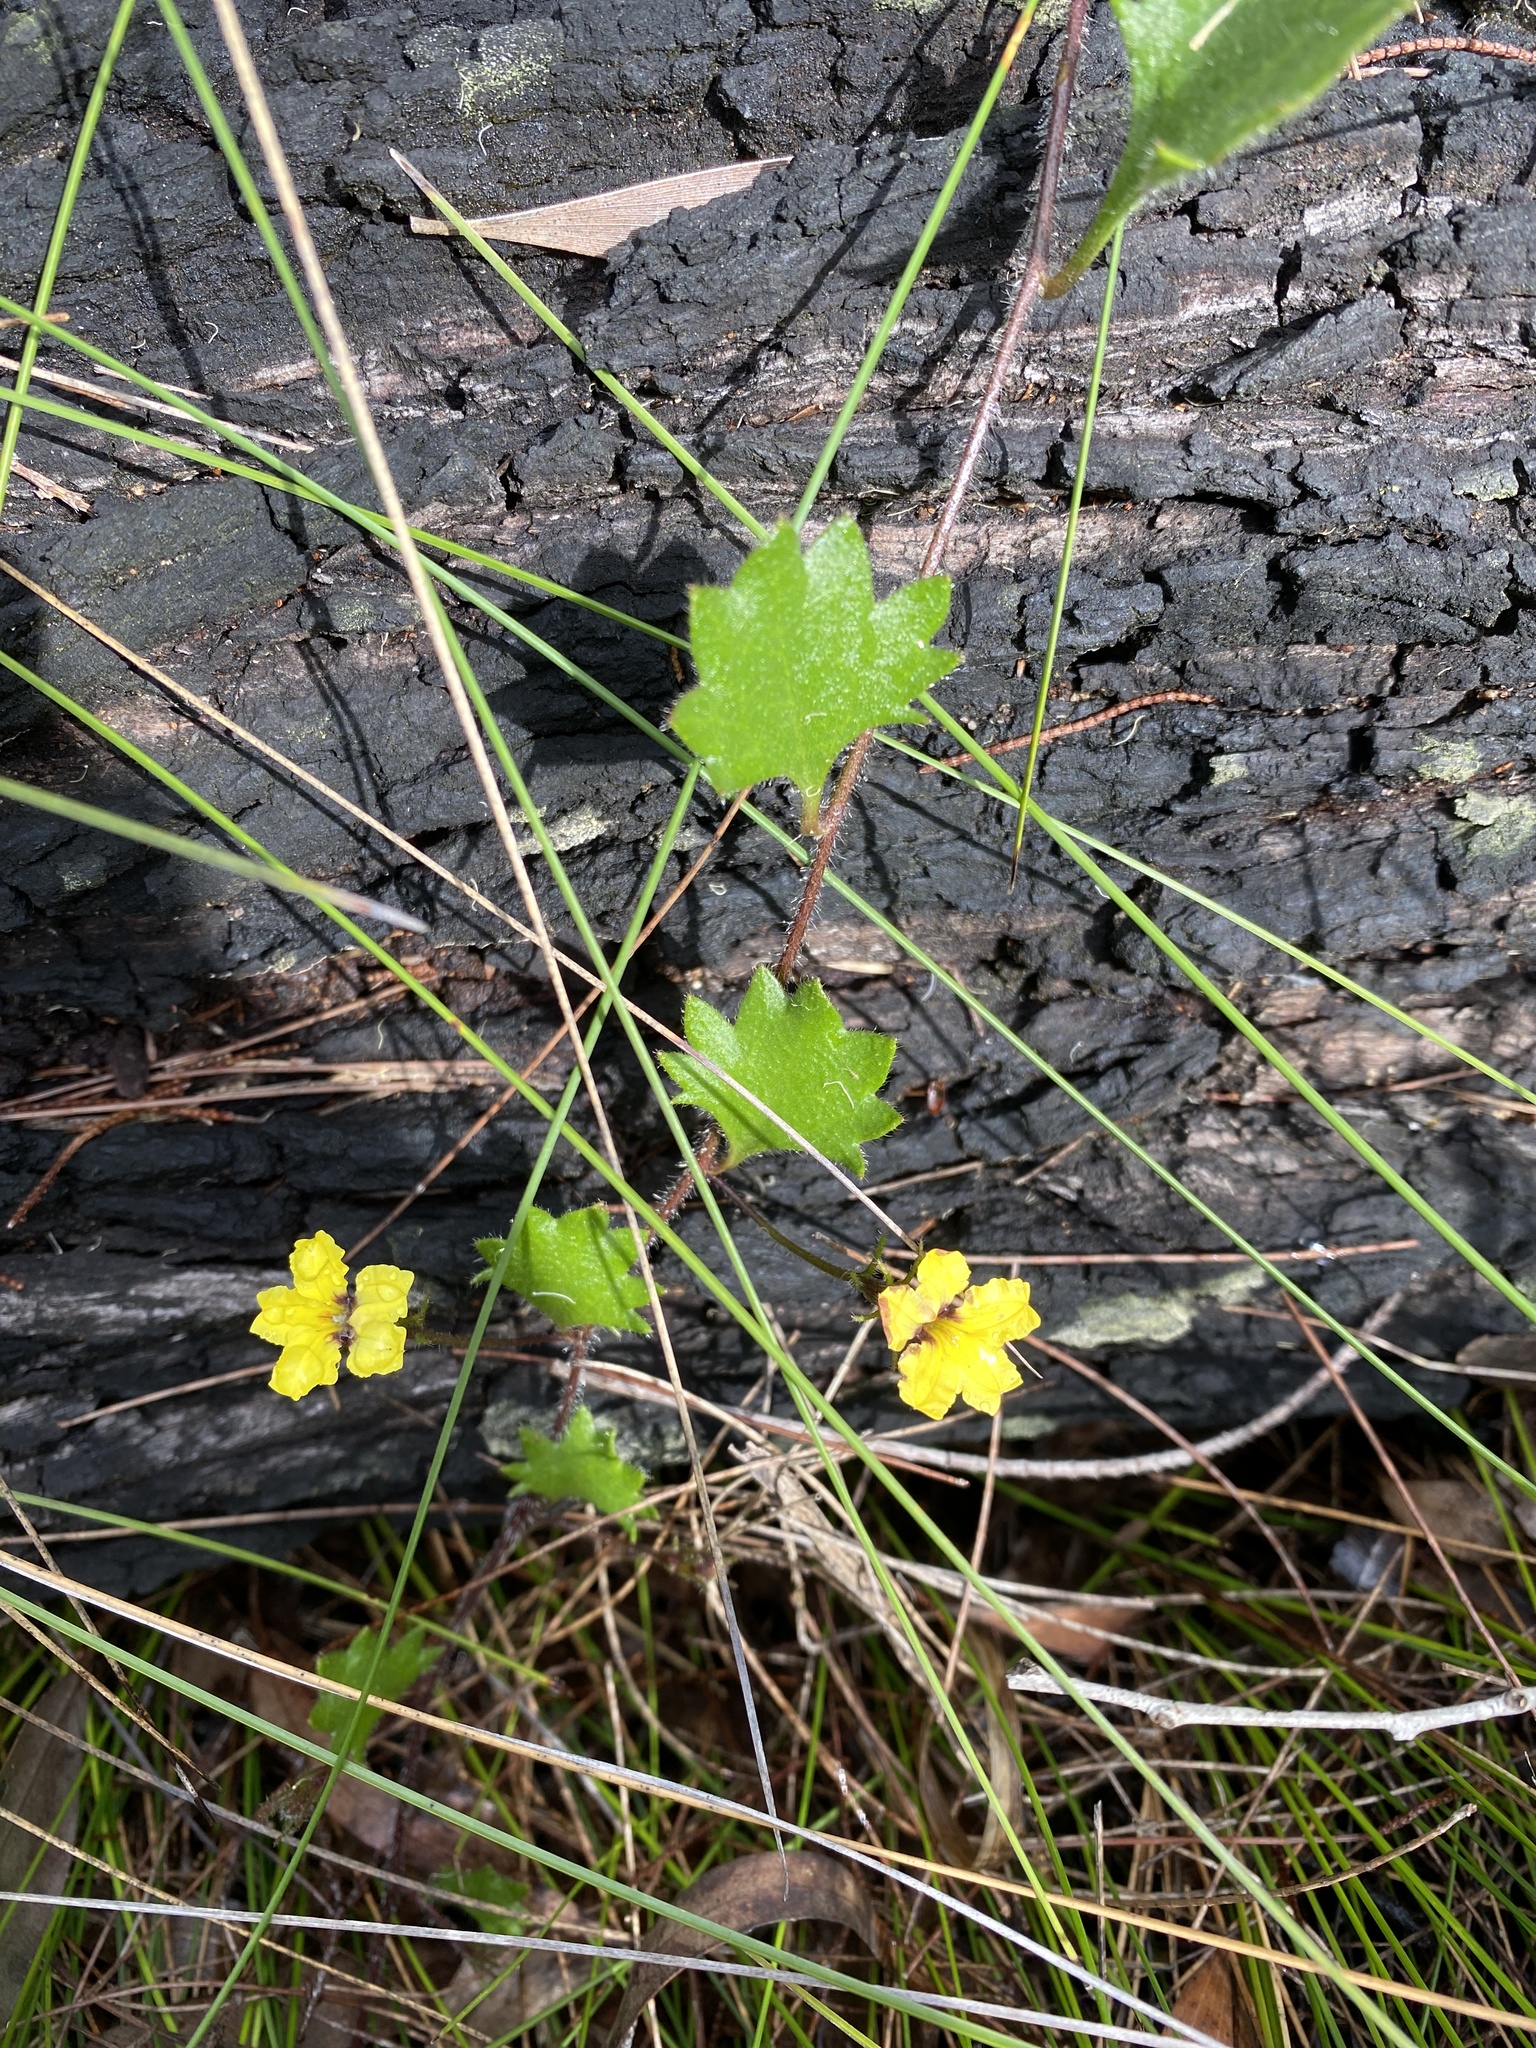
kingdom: Plantae
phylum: Tracheophyta
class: Magnoliopsida
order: Asterales
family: Goodeniaceae
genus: Goodenia
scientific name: Goodenia rotundifolia
